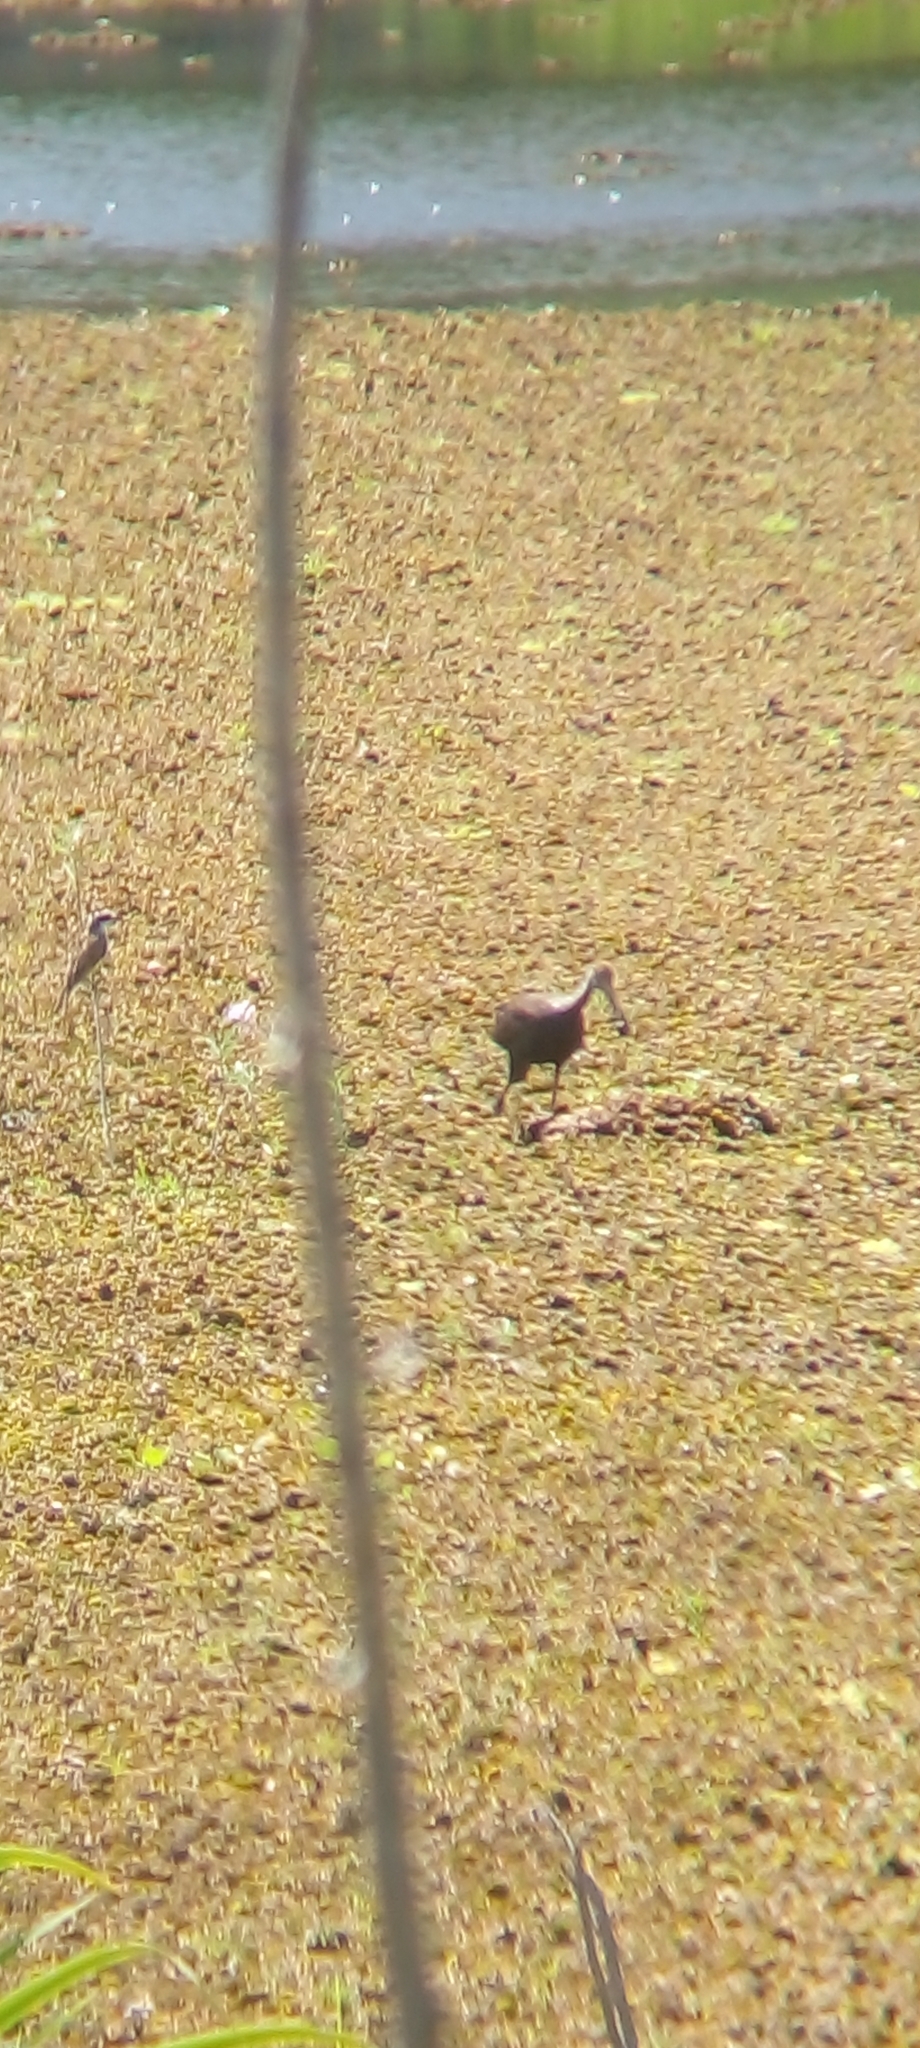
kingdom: Animalia
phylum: Chordata
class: Aves
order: Gruiformes
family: Aramidae
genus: Aramus
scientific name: Aramus guarauna
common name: Limpkin
